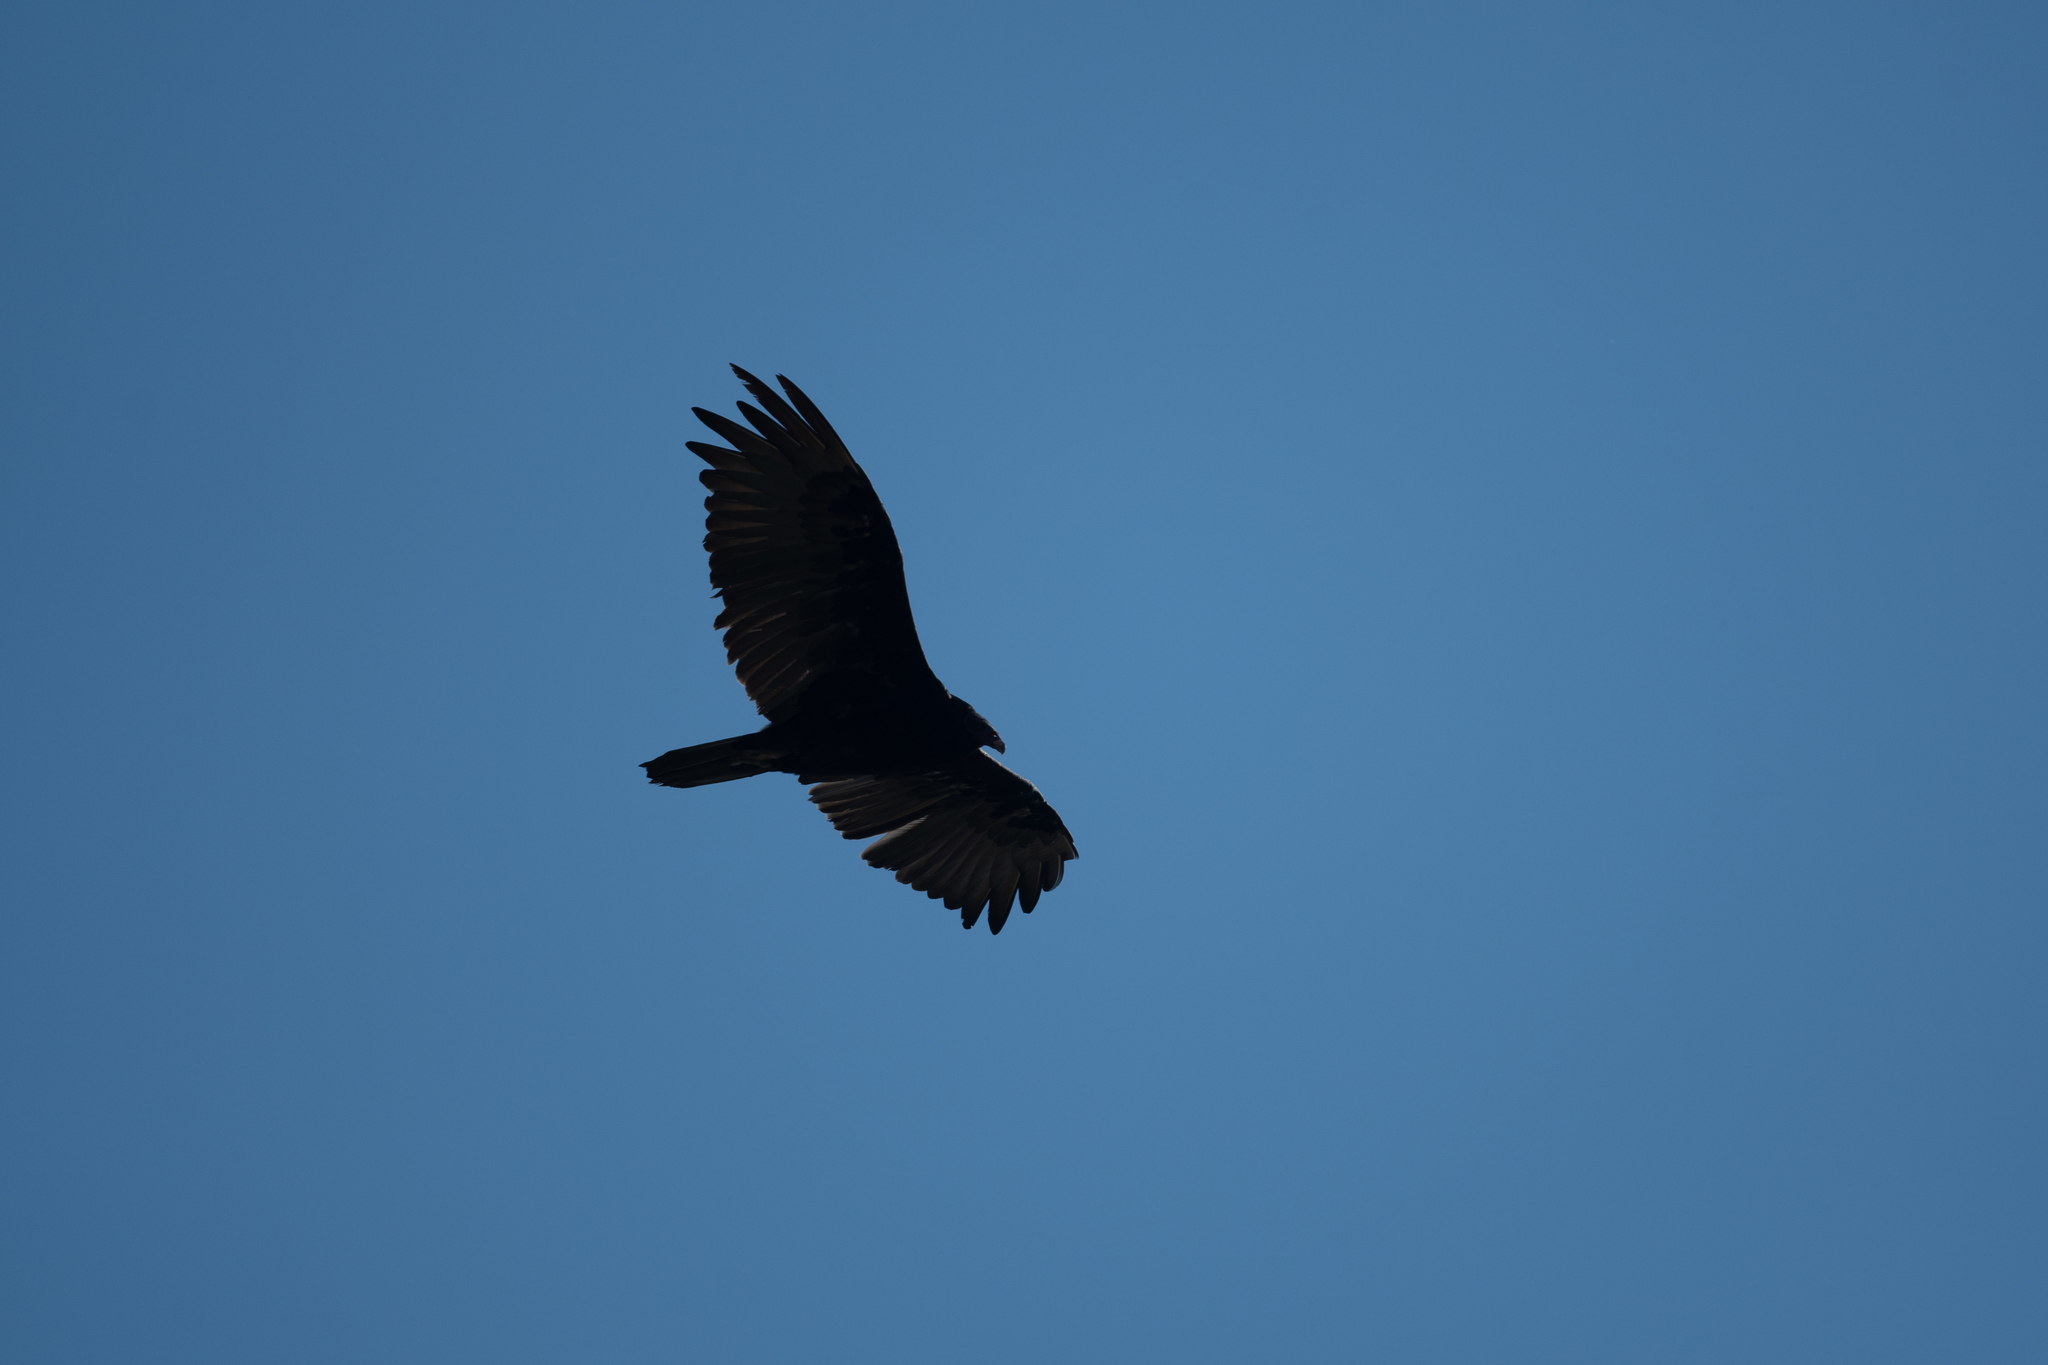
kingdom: Animalia
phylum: Chordata
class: Aves
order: Accipitriformes
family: Cathartidae
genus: Cathartes
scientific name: Cathartes aura
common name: Turkey vulture
